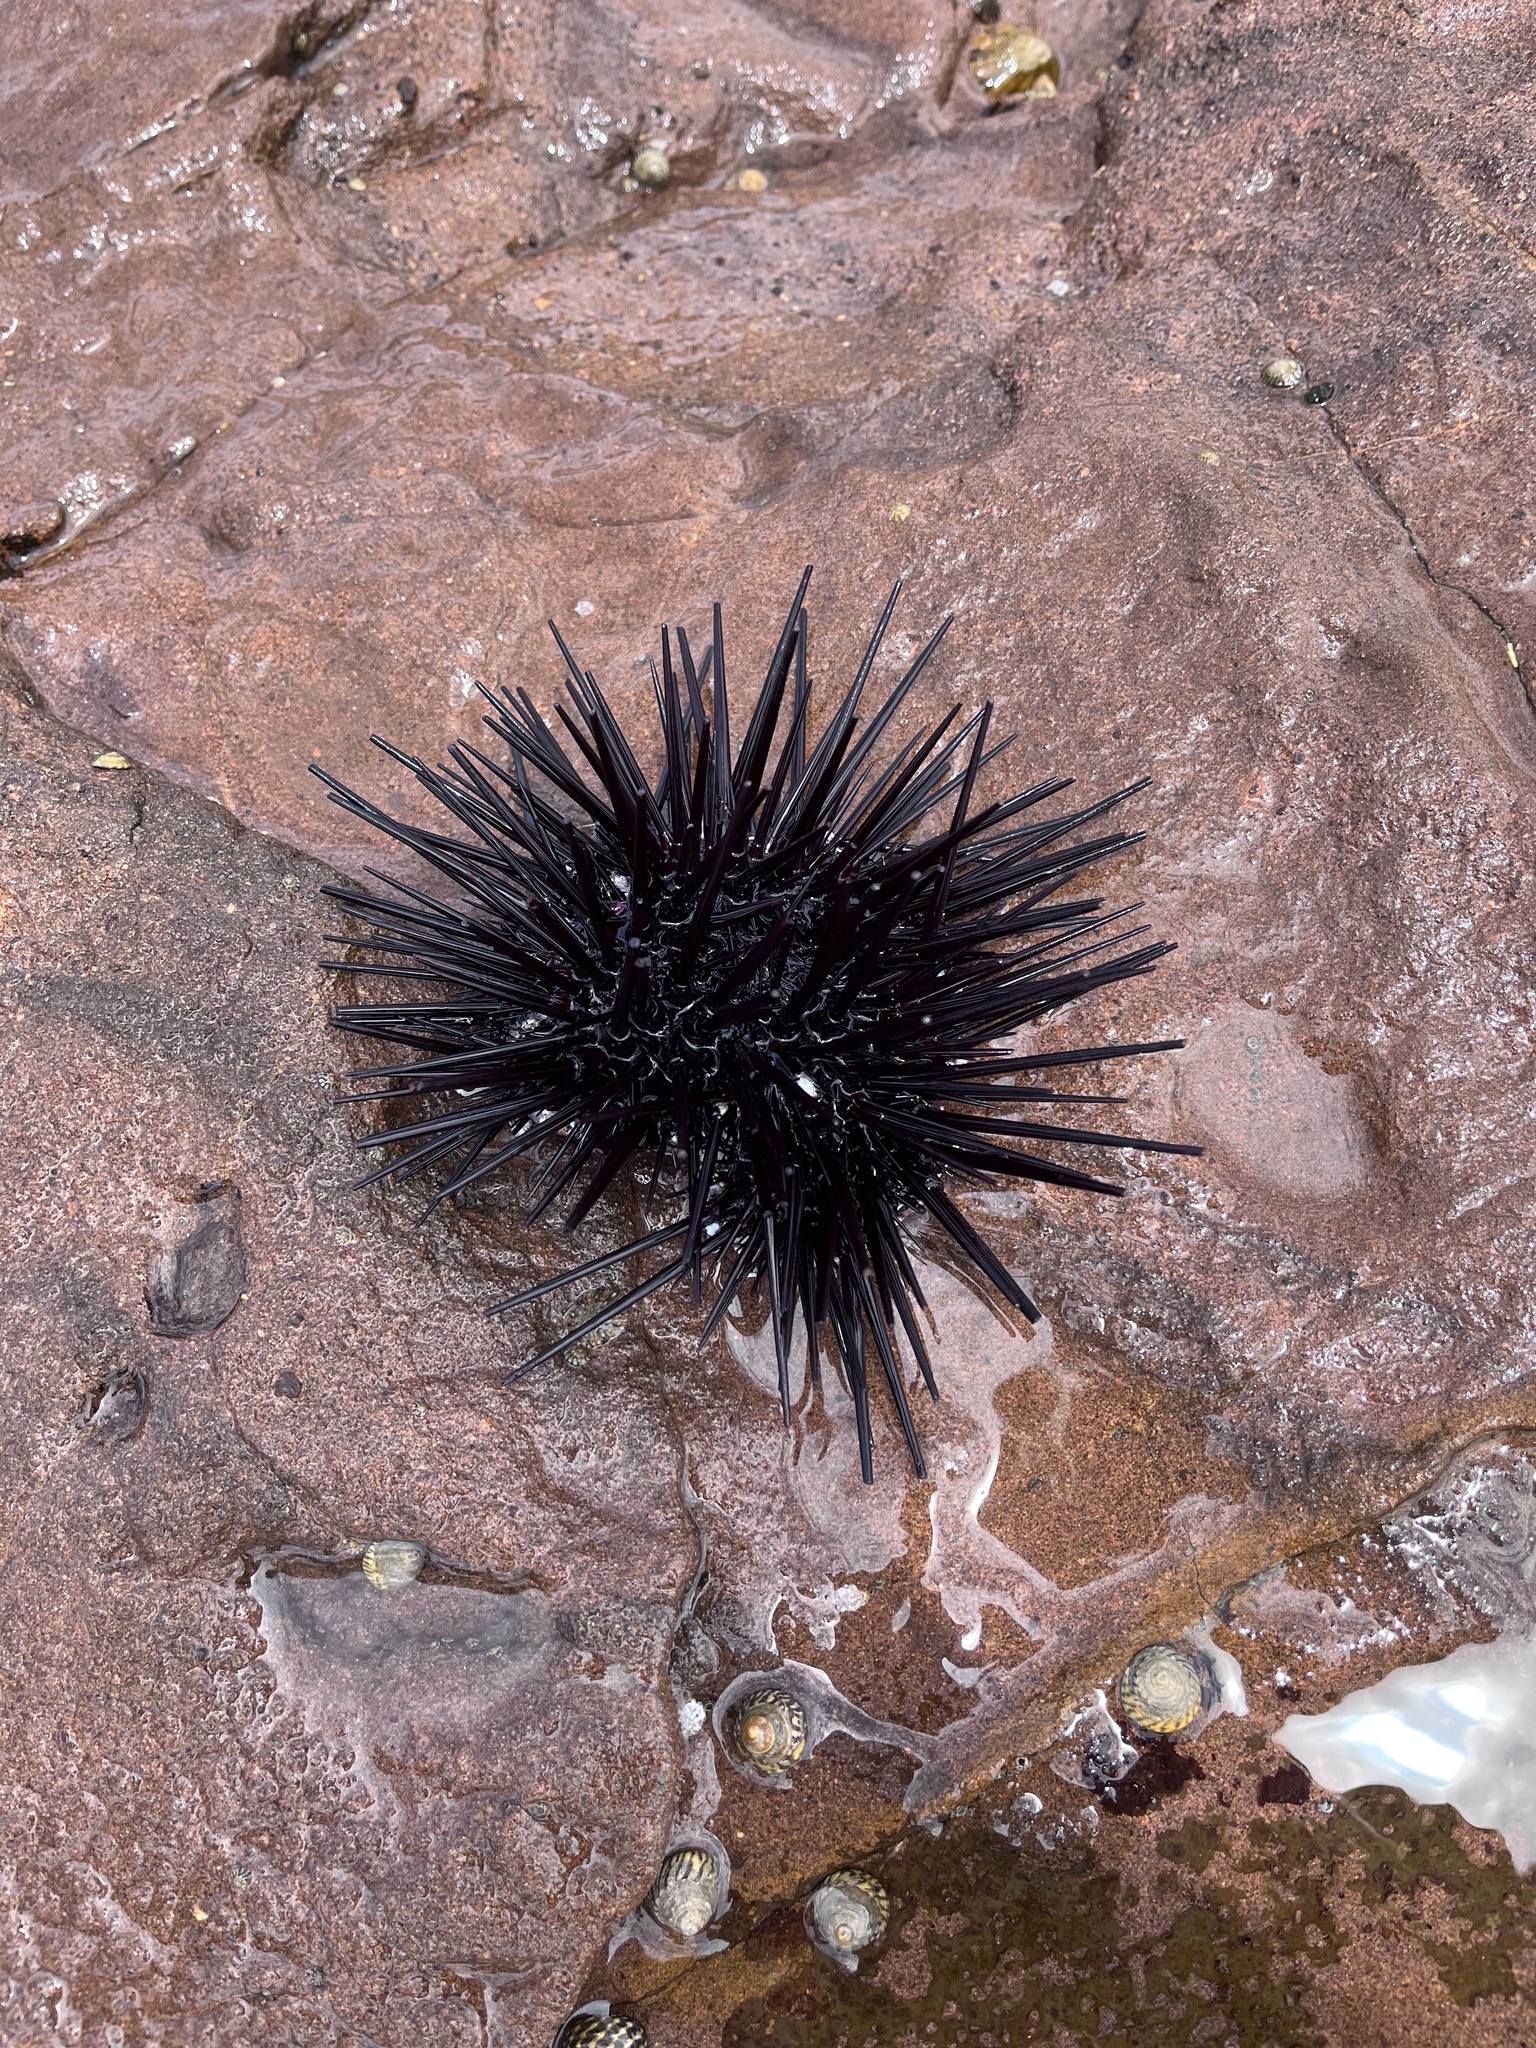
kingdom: Animalia
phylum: Echinodermata
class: Echinoidea
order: Diadematoida
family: Diadematidae
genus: Centrostephanus
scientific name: Centrostephanus rodgersii
